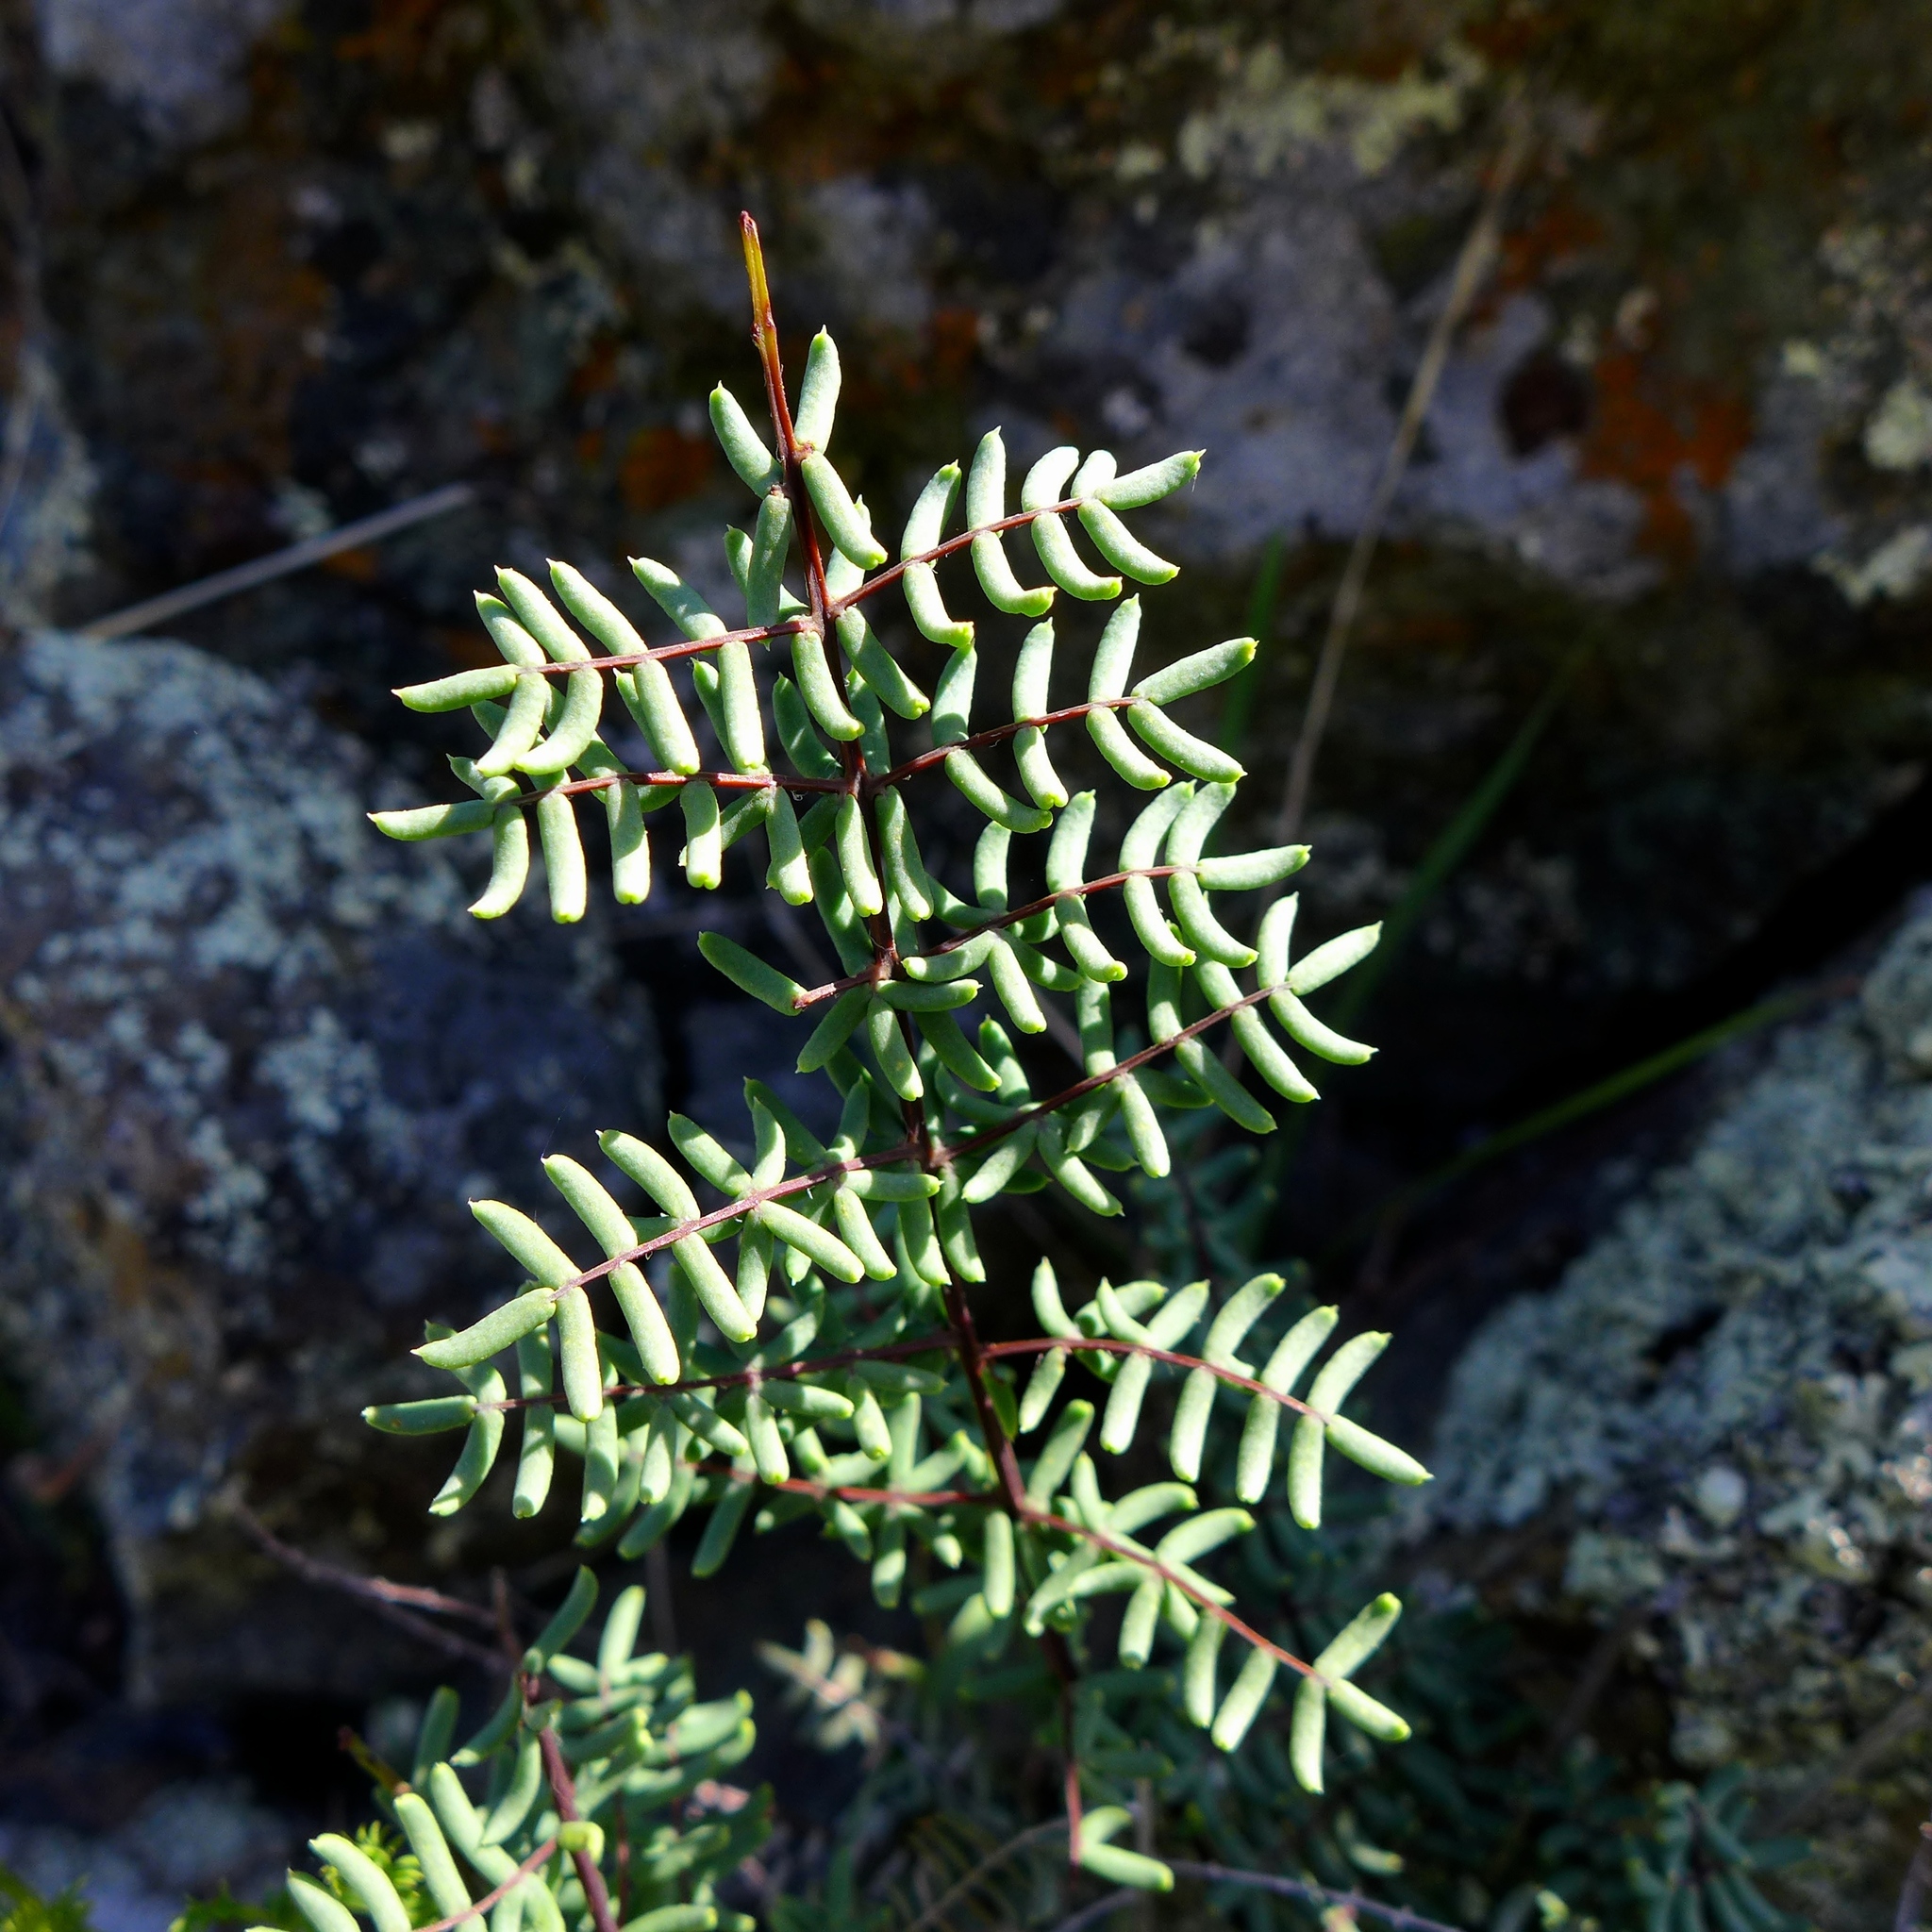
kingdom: Plantae
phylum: Tracheophyta
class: Polypodiopsida
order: Polypodiales
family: Pteridaceae
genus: Pellaea
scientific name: Pellaea mucronata
